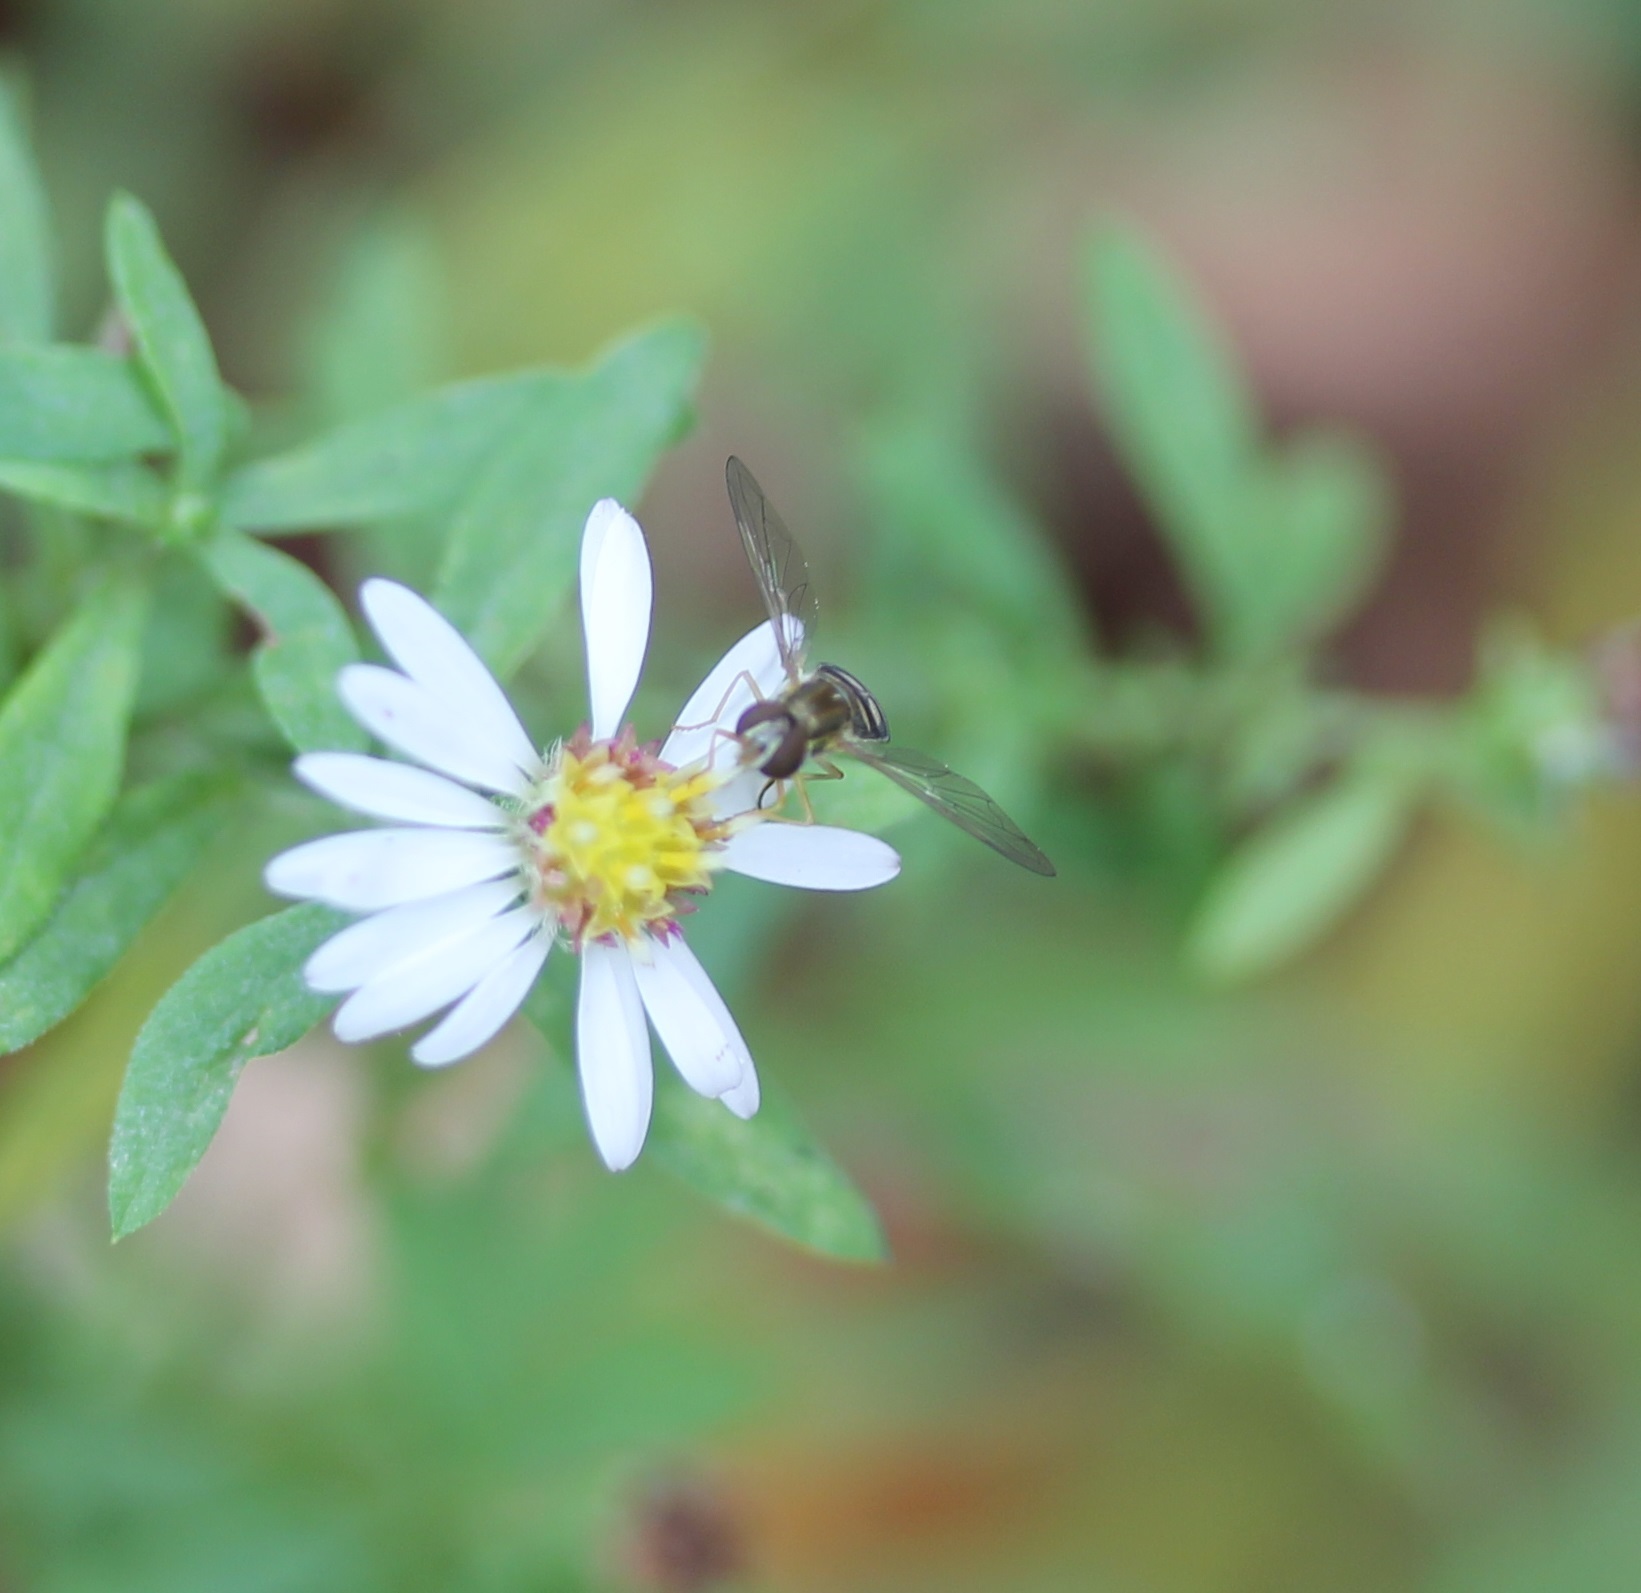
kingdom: Animalia
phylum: Arthropoda
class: Insecta
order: Diptera
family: Syrphidae
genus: Toxomerus
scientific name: Toxomerus marginatus
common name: Syrphid fly
